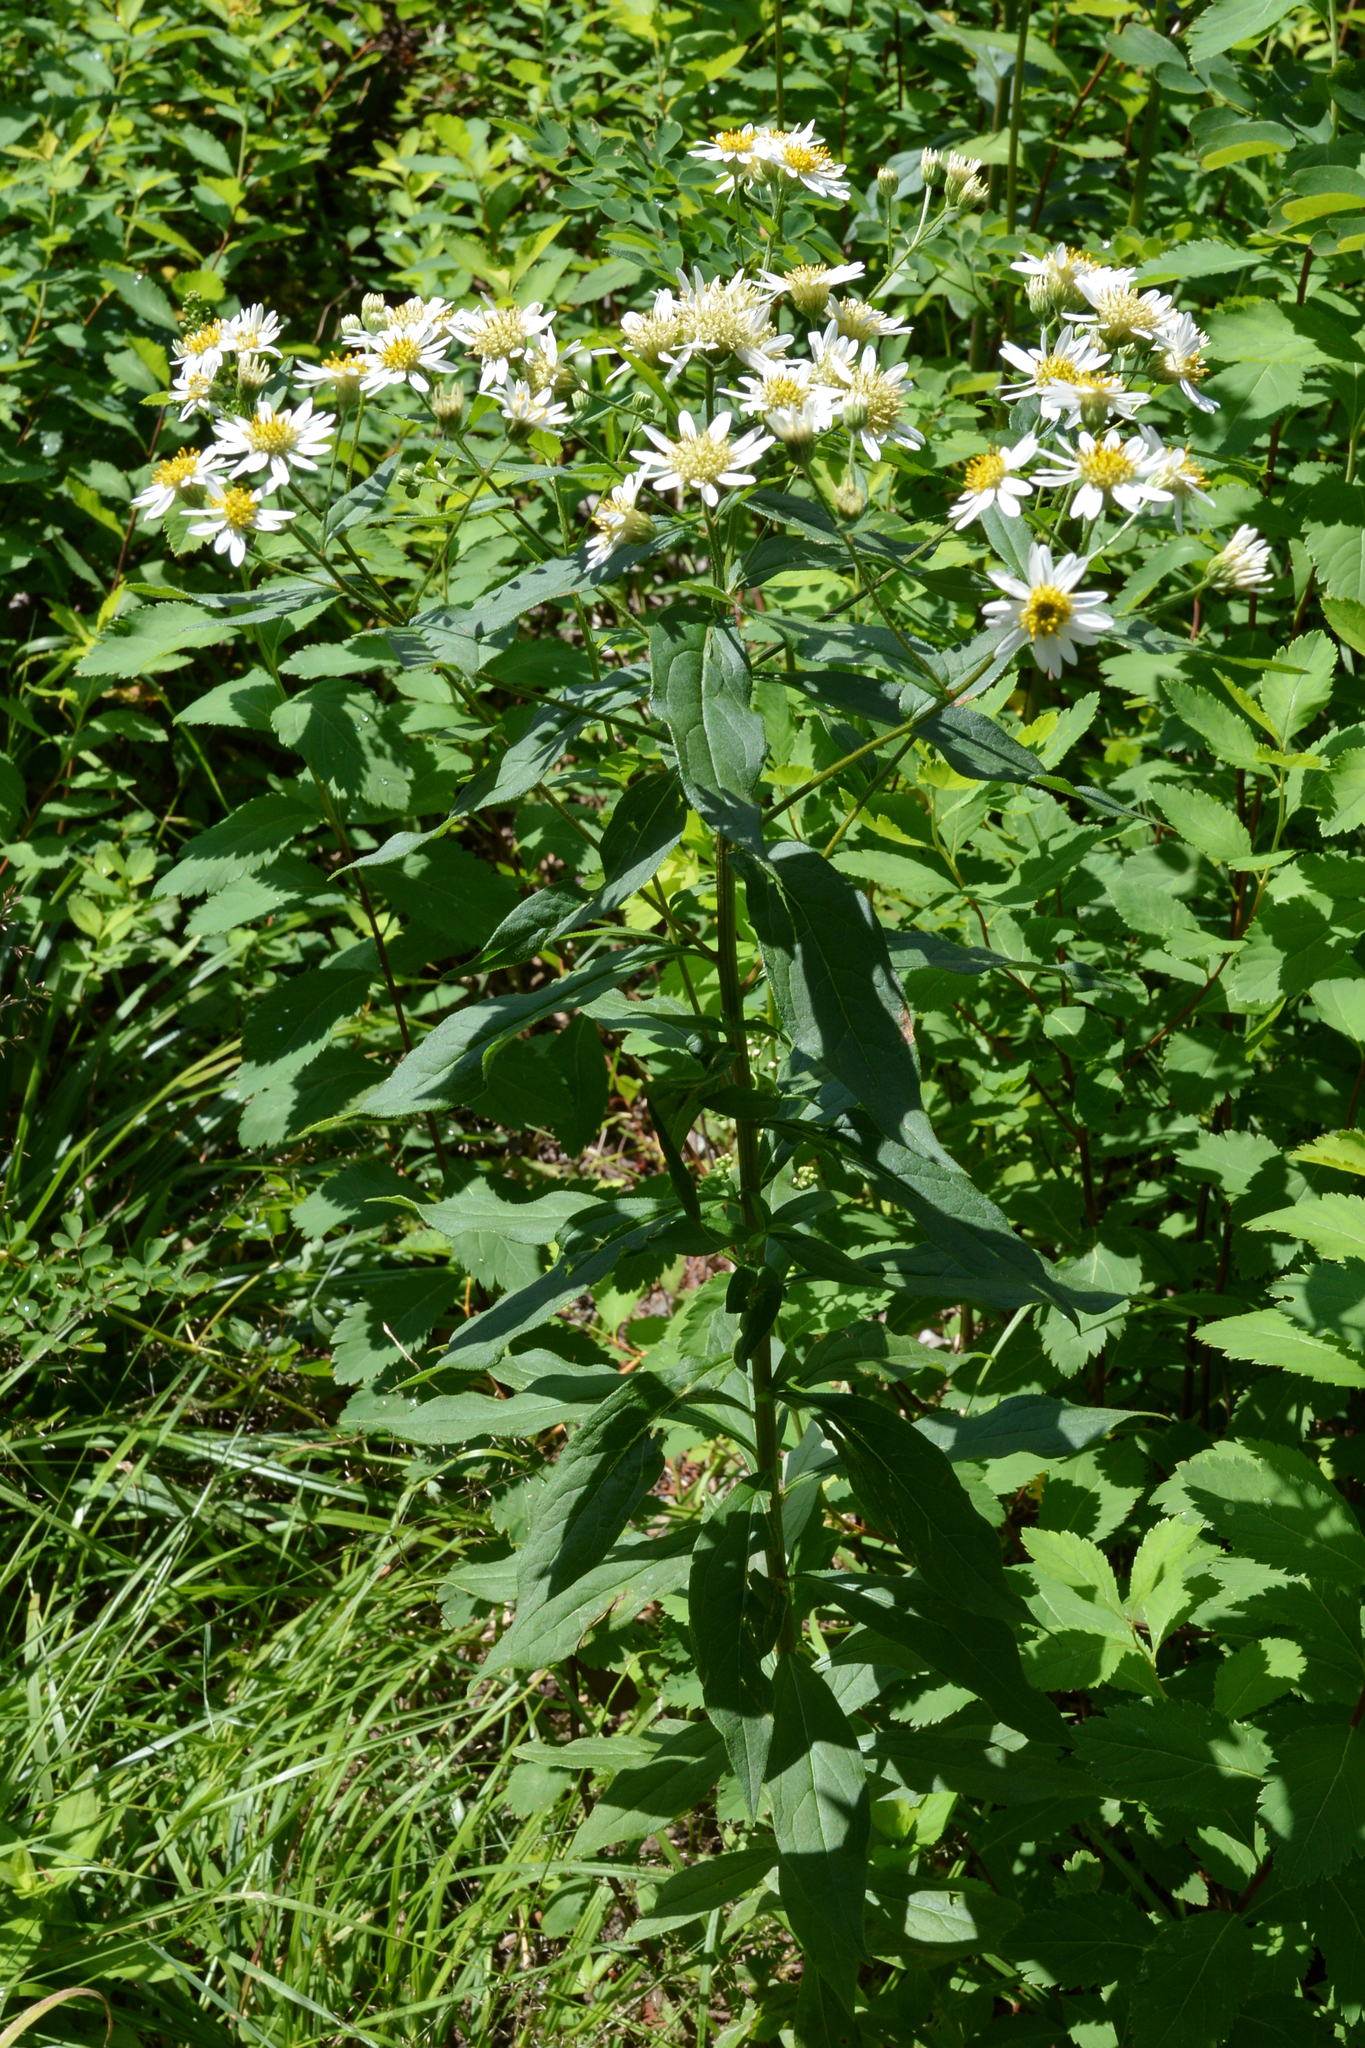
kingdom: Plantae
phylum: Tracheophyta
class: Magnoliopsida
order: Asterales
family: Asteraceae
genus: Doellingeria
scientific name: Doellingeria umbellata
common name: Flat-top white aster
